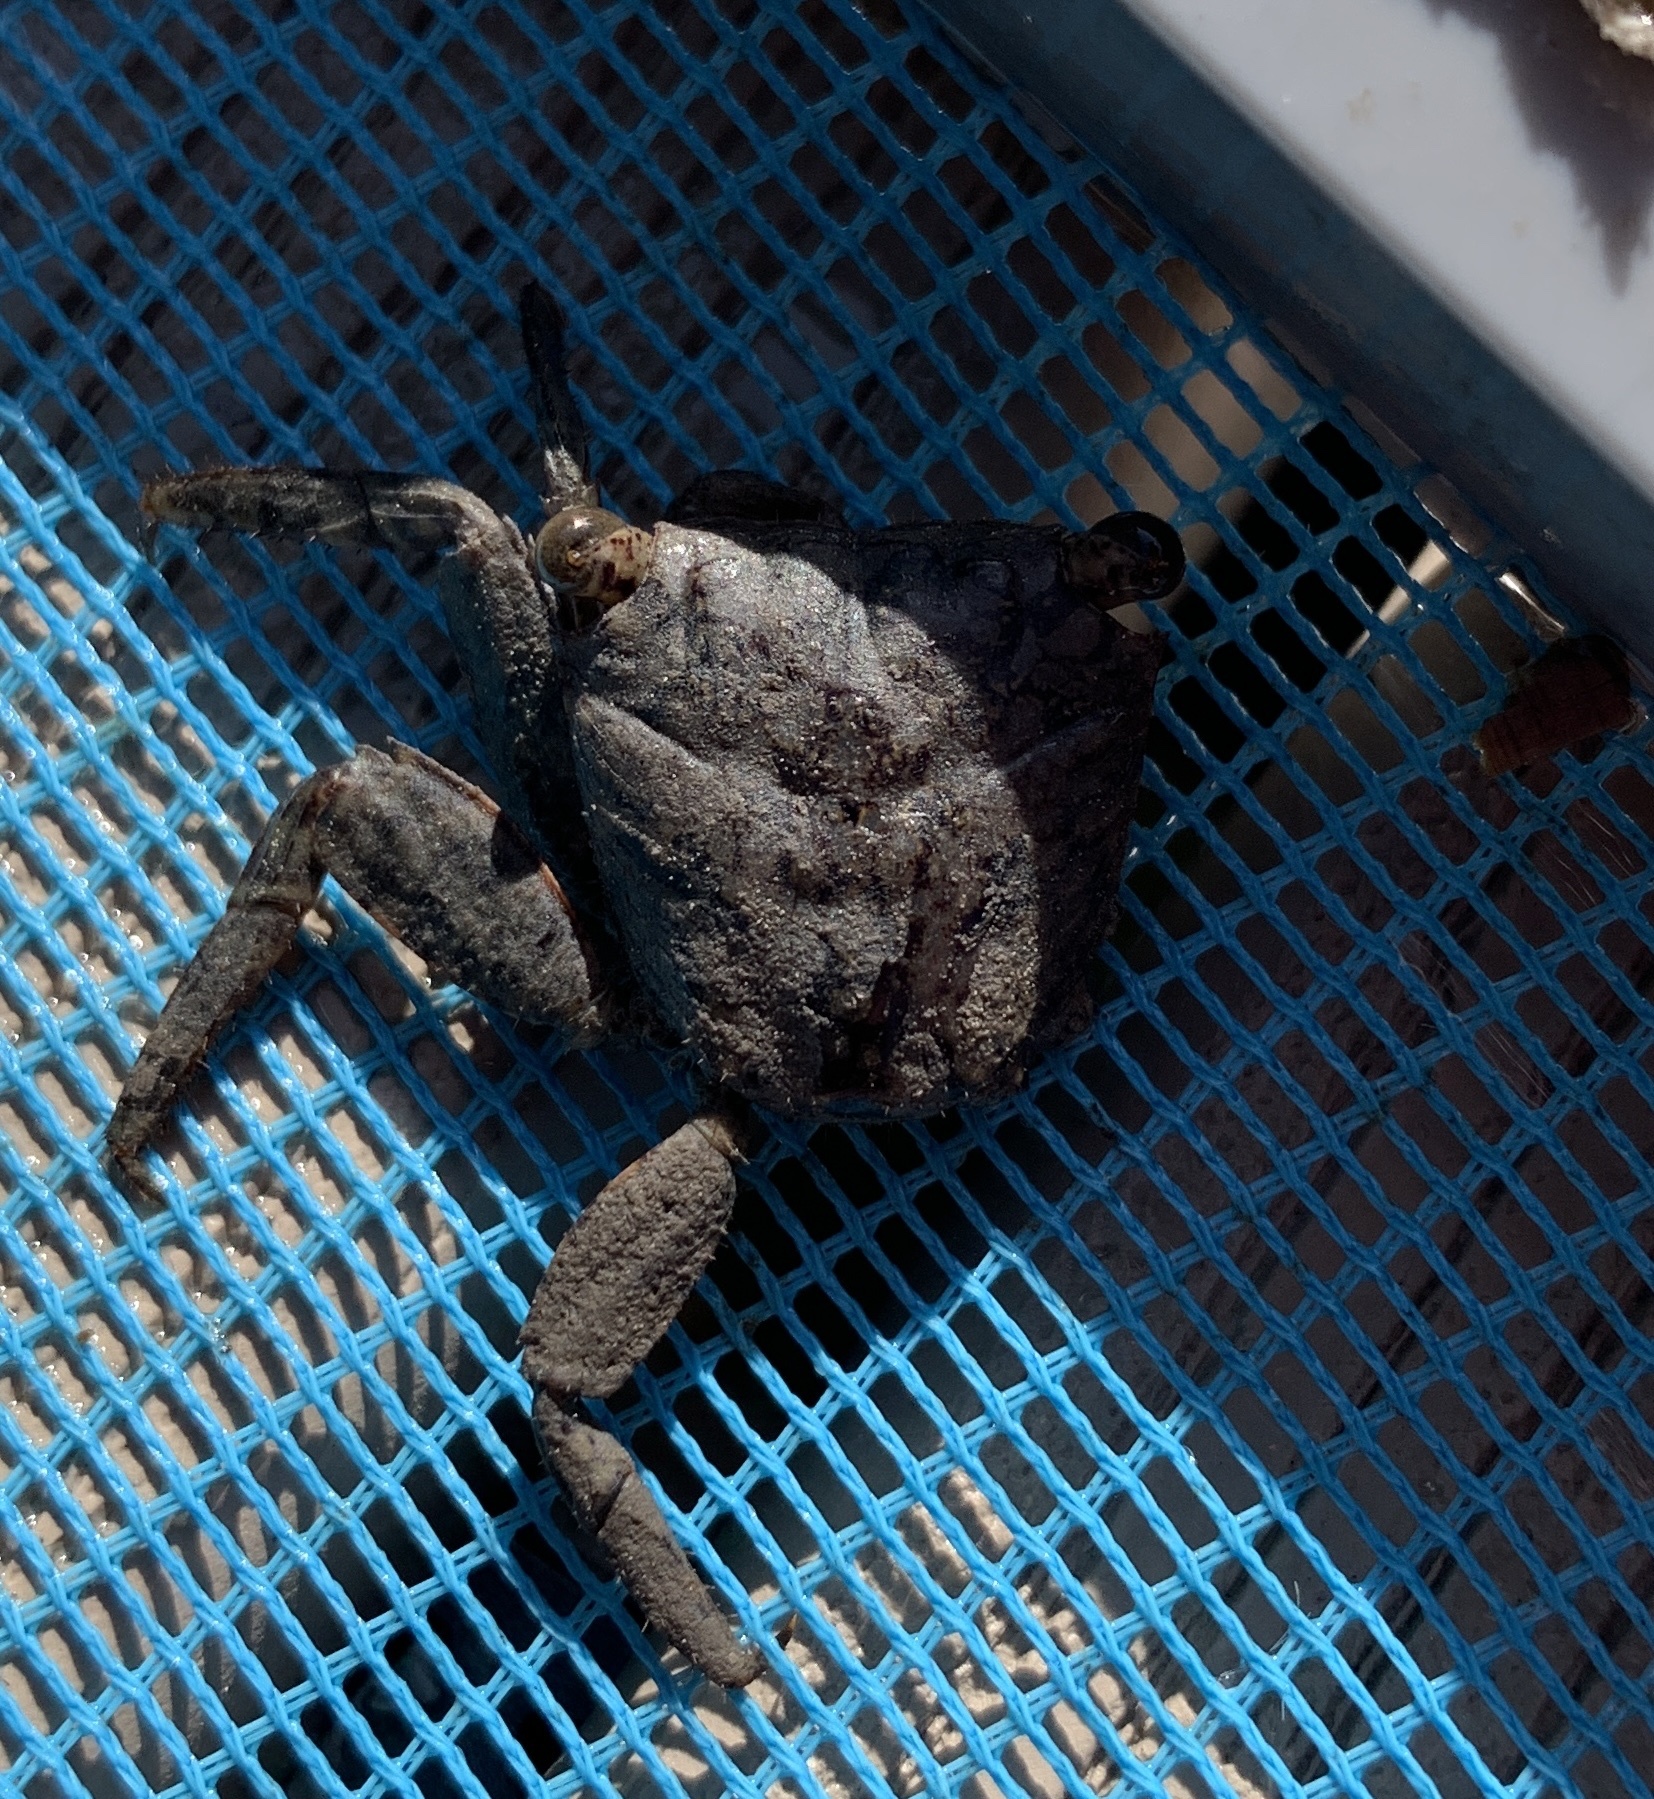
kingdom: Animalia
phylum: Arthropoda
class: Malacostraca
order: Decapoda
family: Sesarmidae
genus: Aratus
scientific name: Aratus pisonii
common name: Mangrove crab
